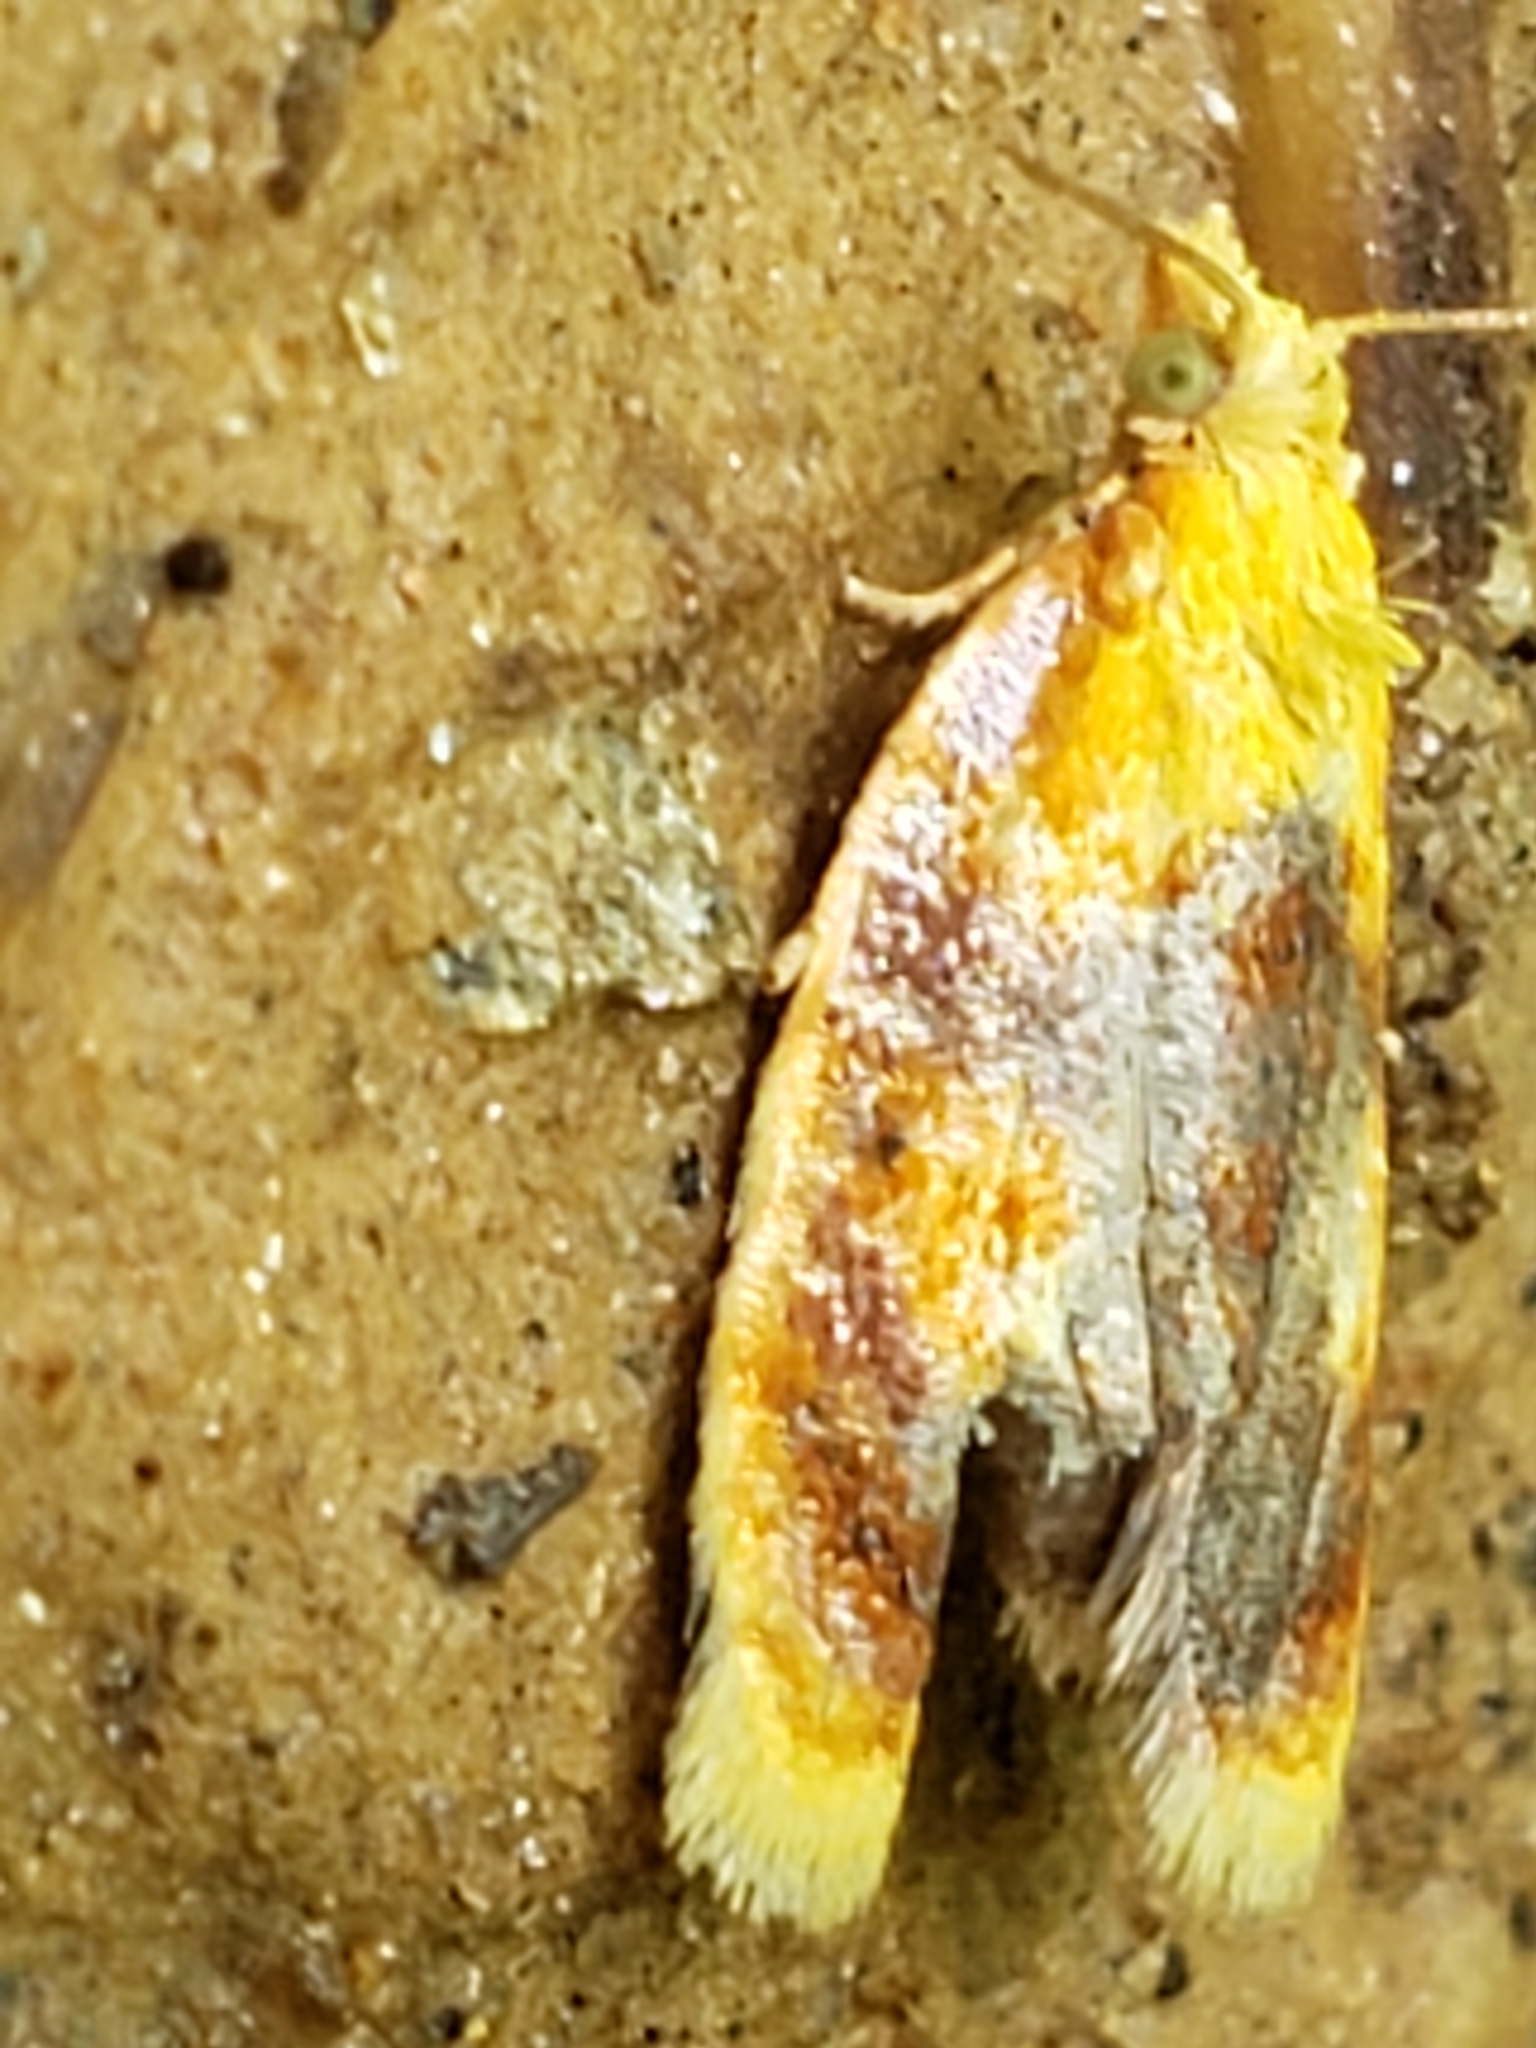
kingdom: Animalia
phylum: Arthropoda
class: Insecta
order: Lepidoptera
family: Tortricidae
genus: Acleris
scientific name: Acleris curvalana
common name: Blueberry leaftier moth
